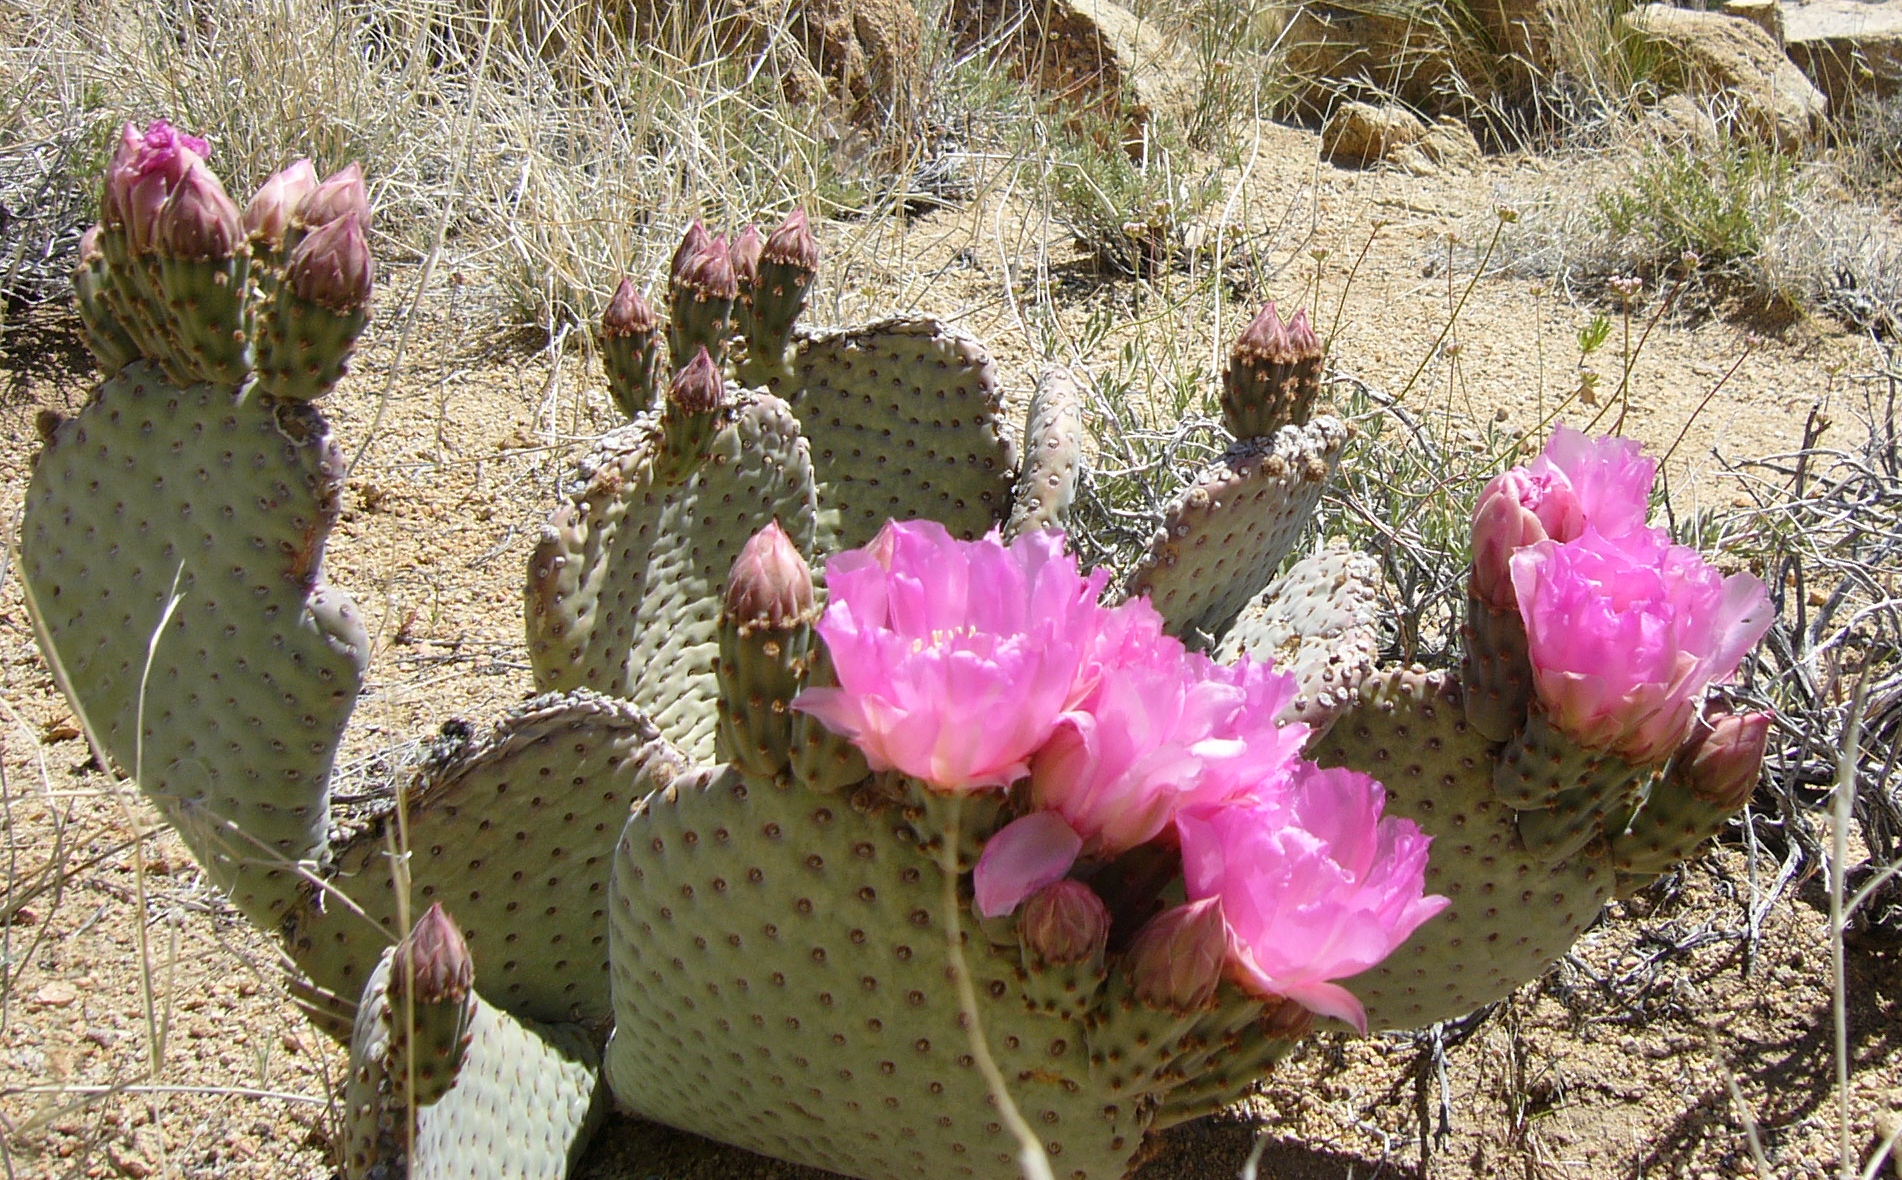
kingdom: Plantae
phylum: Tracheophyta
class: Magnoliopsida
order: Caryophyllales
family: Cactaceae
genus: Opuntia
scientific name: Opuntia basilaris
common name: Beavertail prickly-pear
